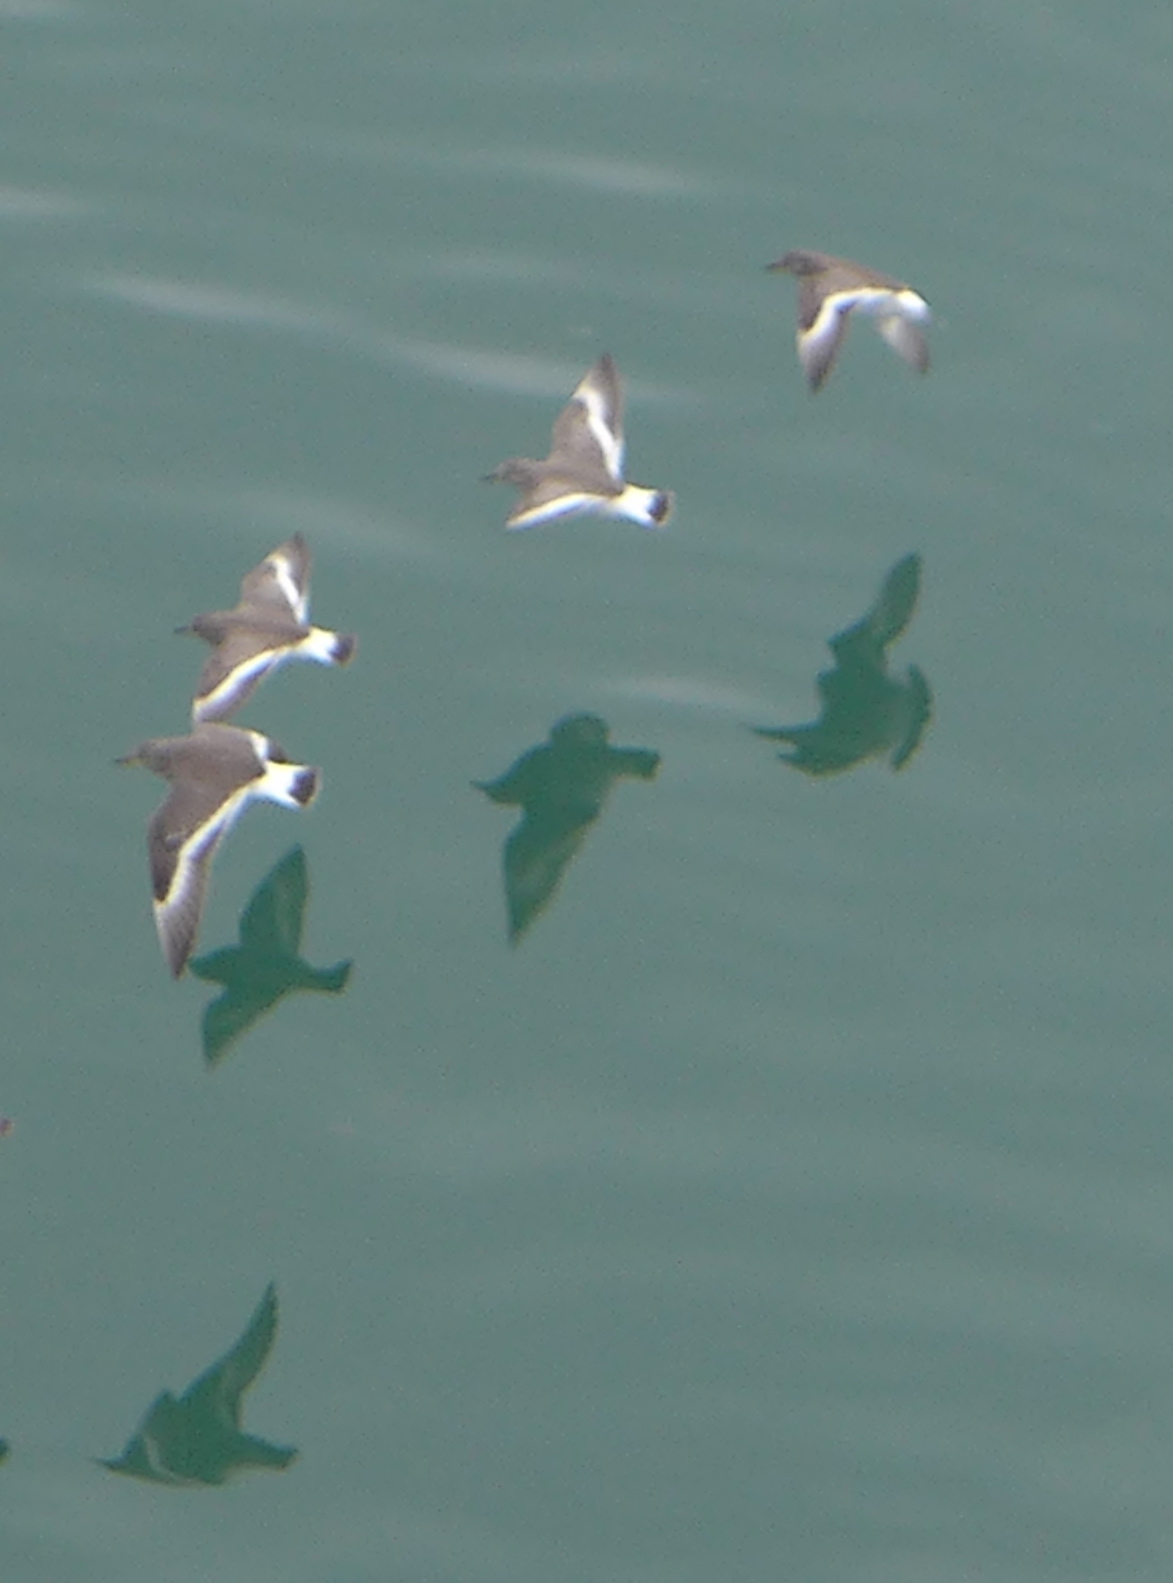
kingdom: Animalia
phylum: Chordata
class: Aves
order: Charadriiformes
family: Scolopacidae
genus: Calidris
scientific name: Calidris virgata
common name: Surfbird
